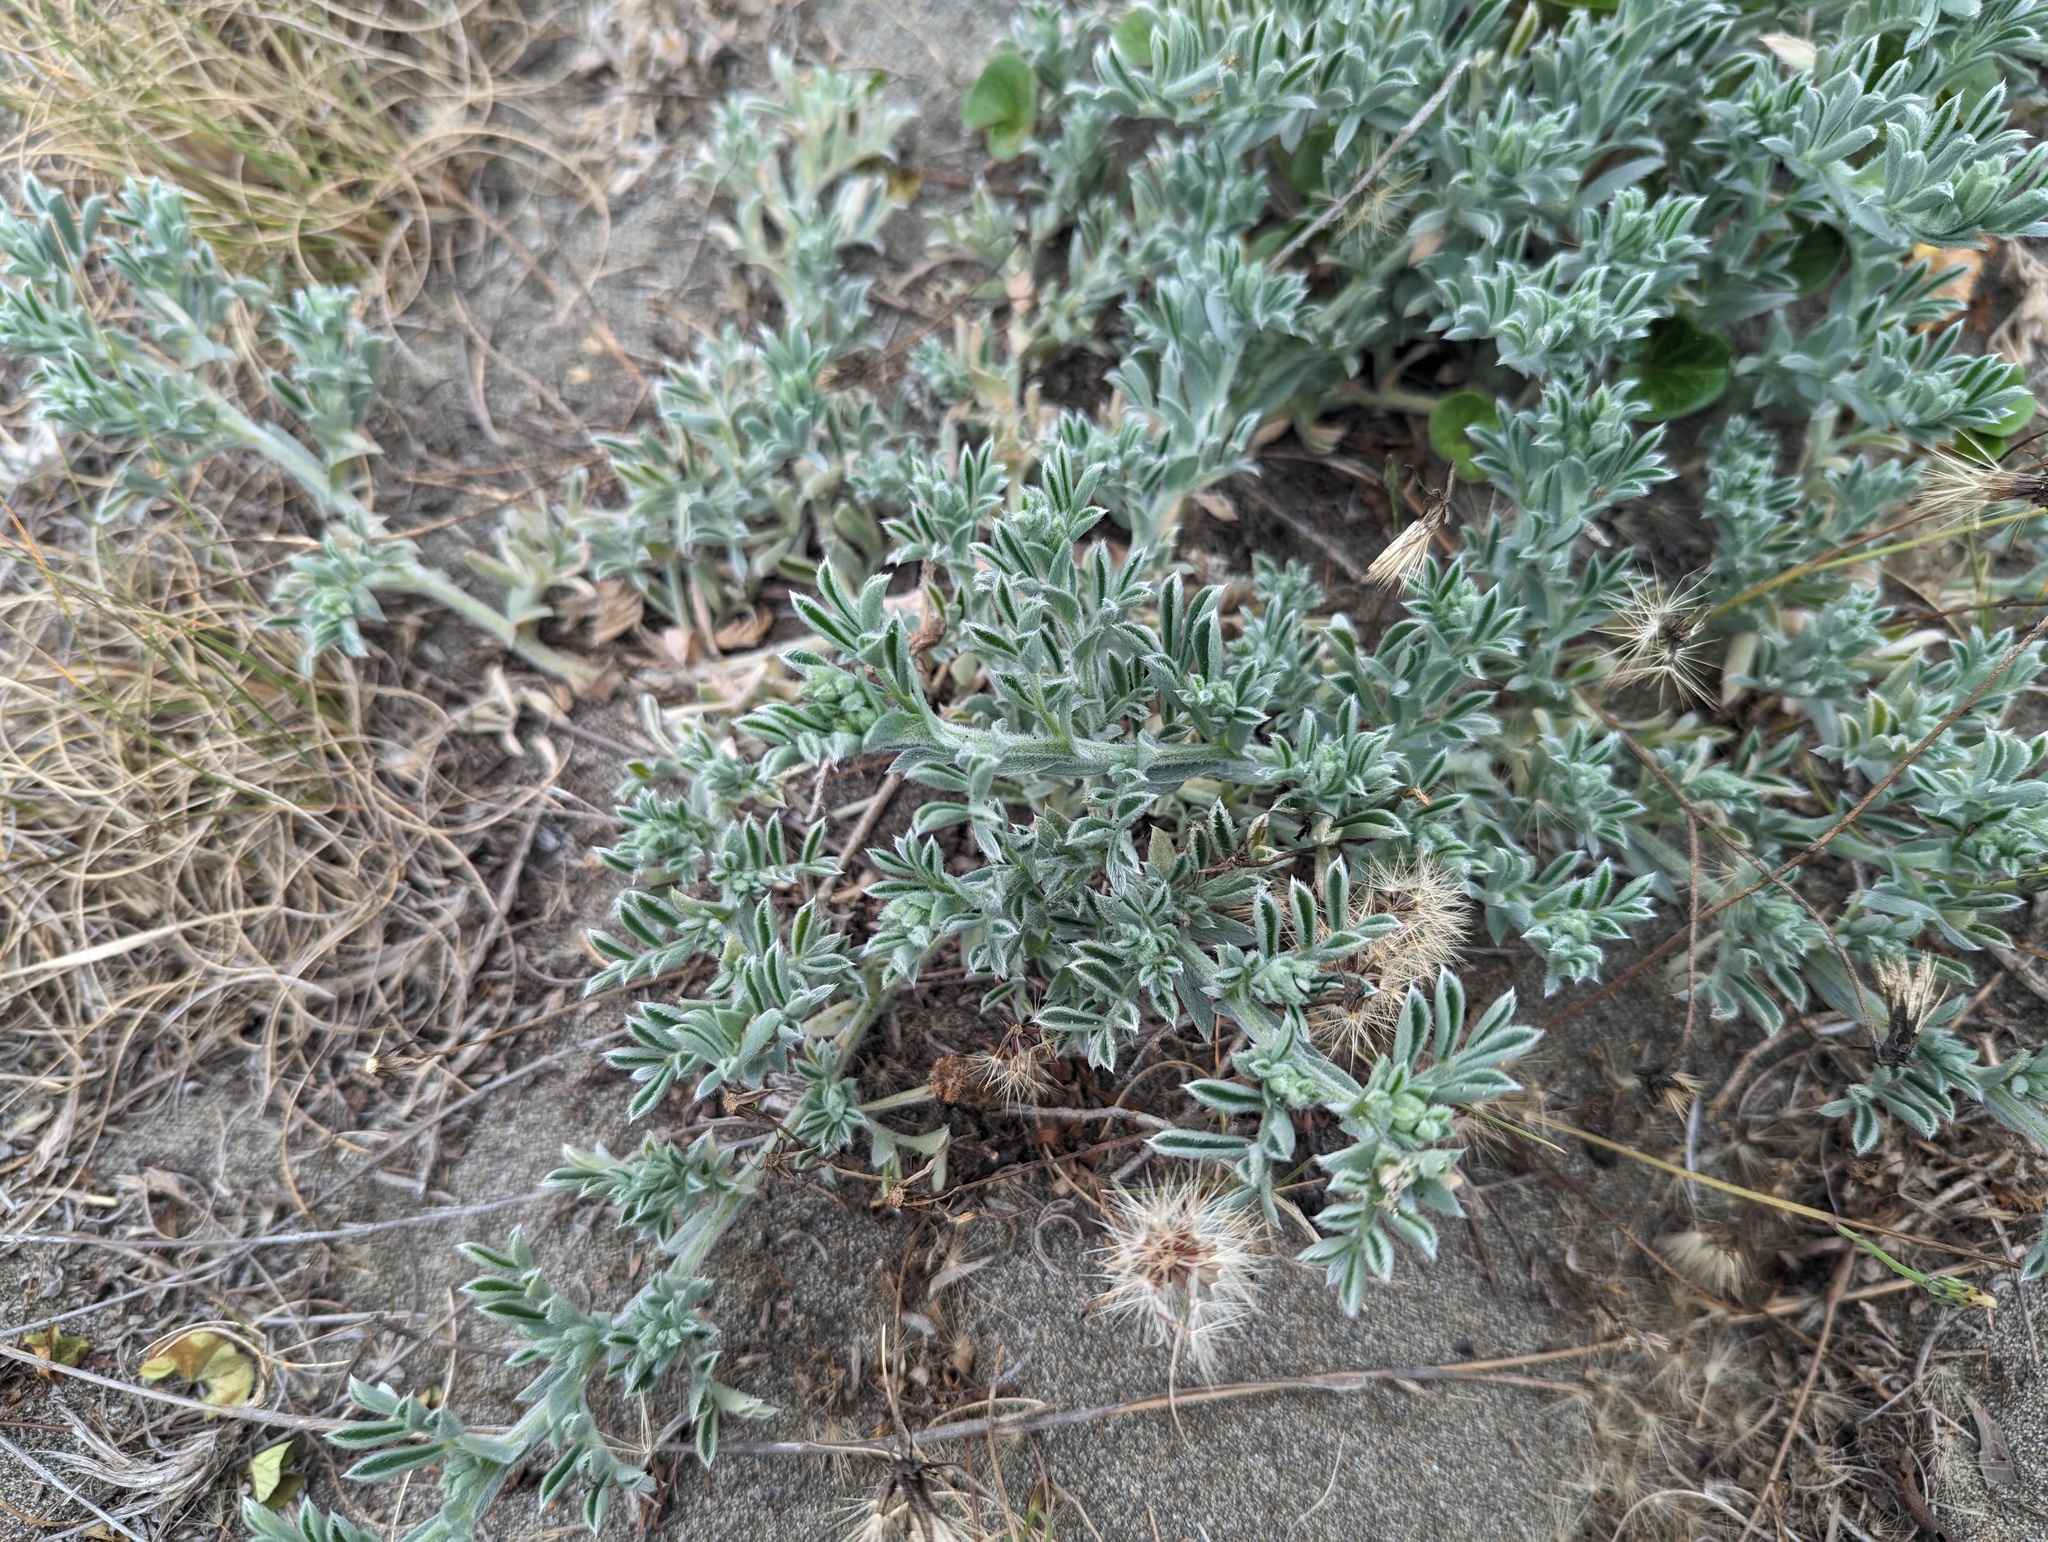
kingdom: Plantae
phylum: Tracheophyta
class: Magnoliopsida
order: Fabales
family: Fabaceae
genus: Lathyrus
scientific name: Lathyrus littoralis
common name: Dune sweet pea
